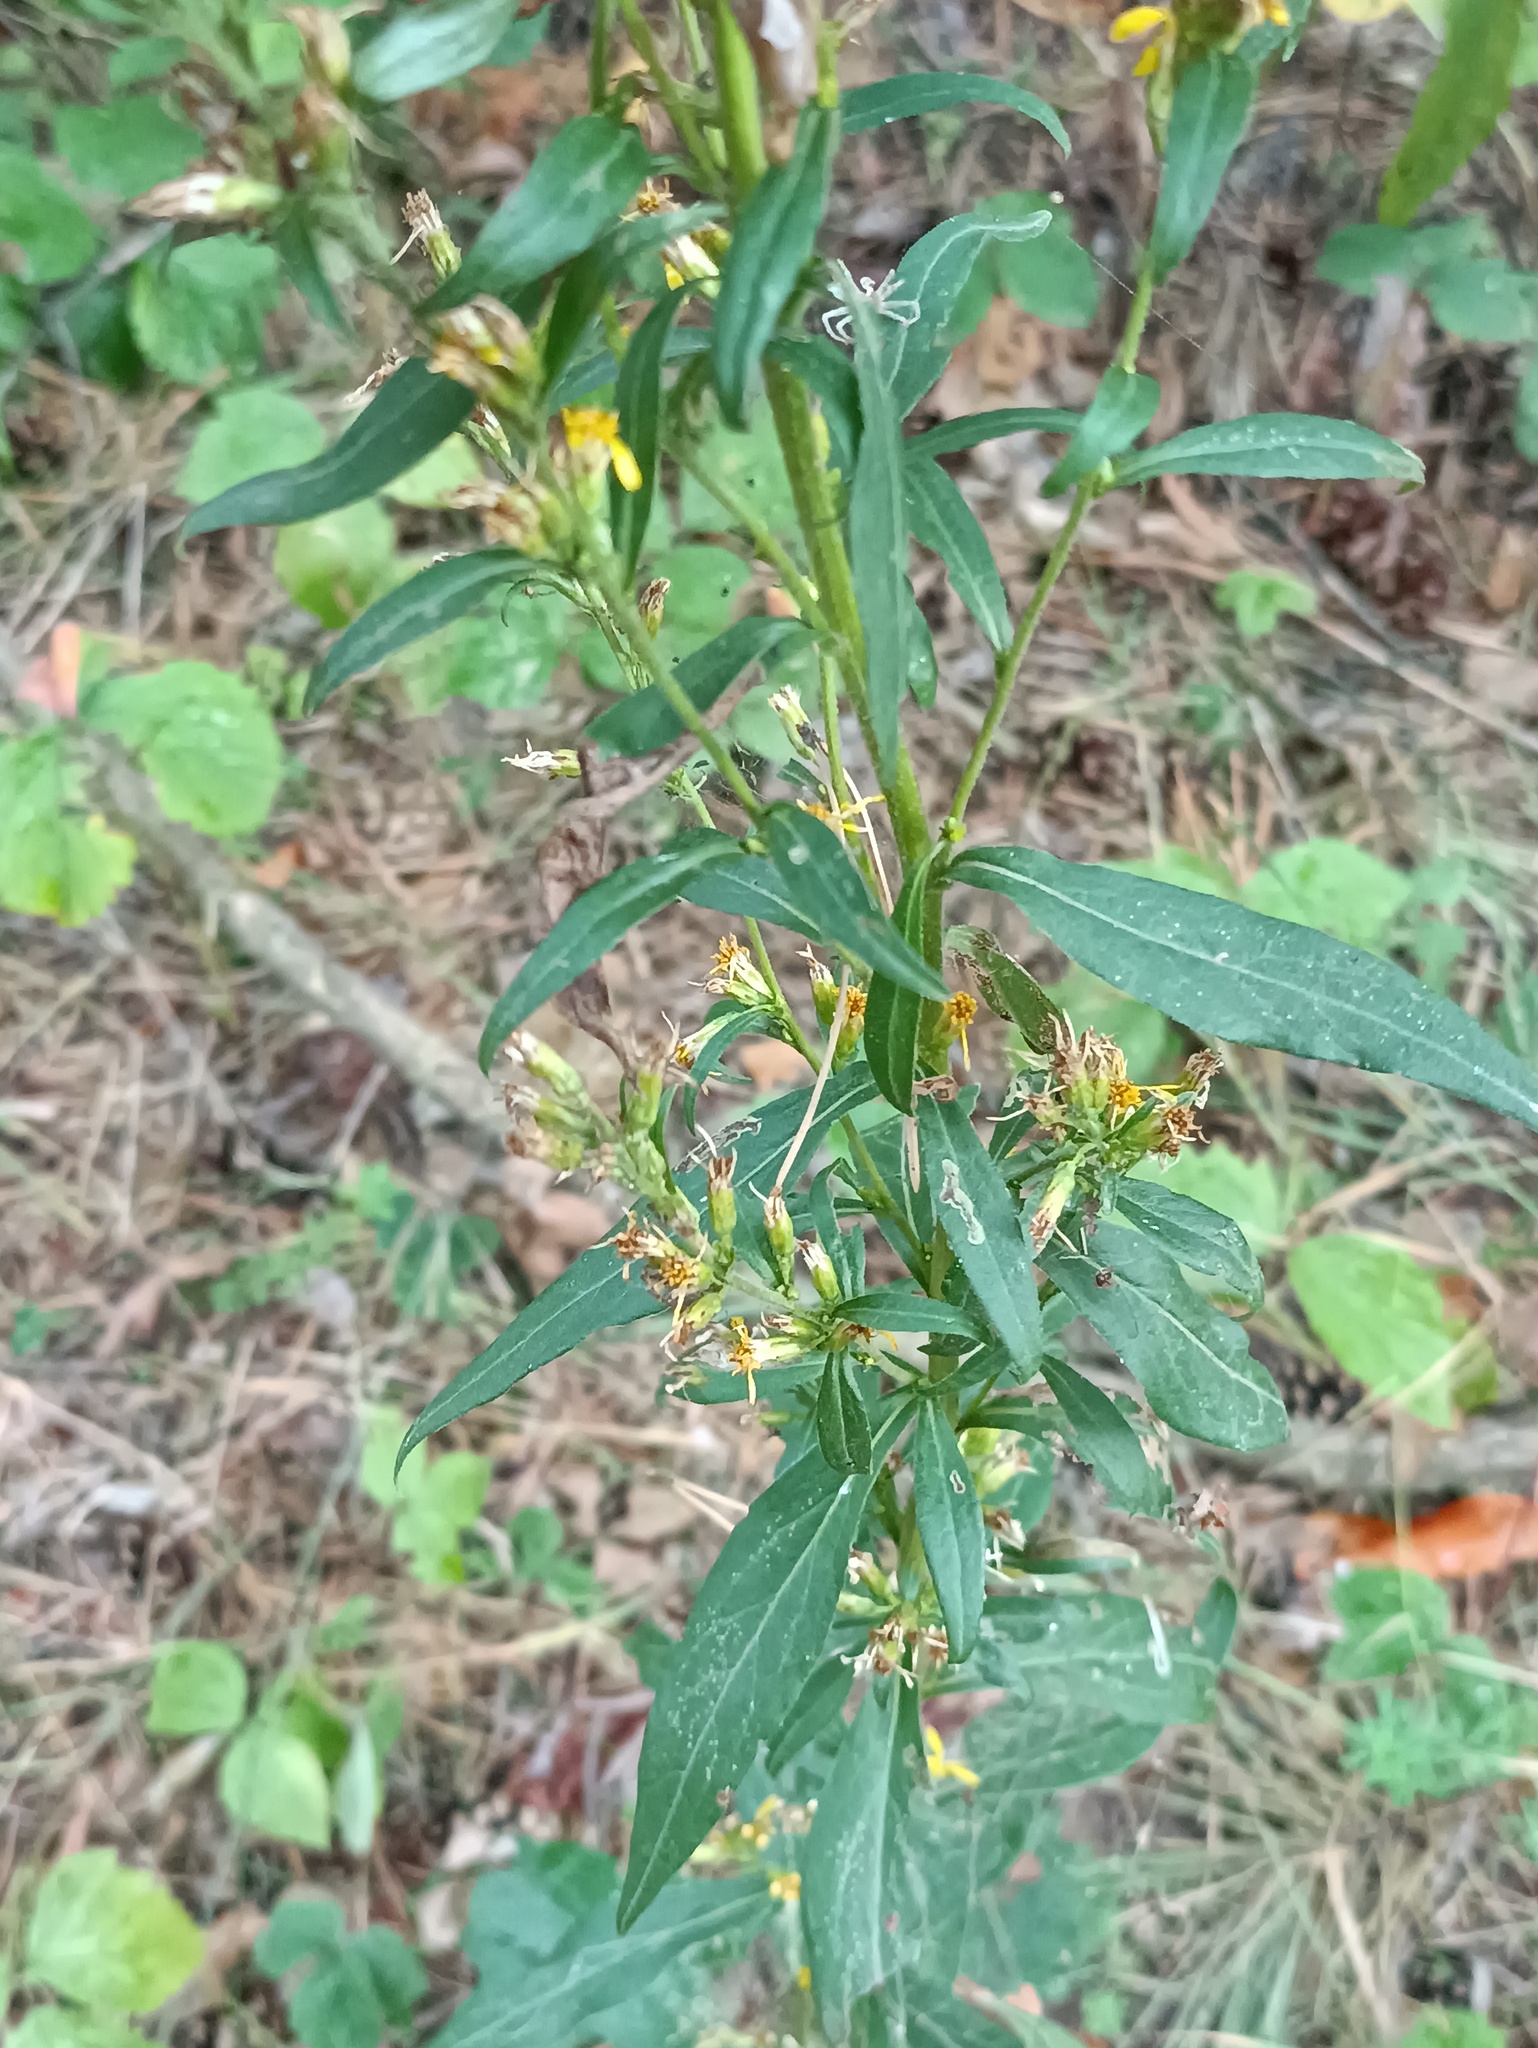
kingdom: Plantae
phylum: Tracheophyta
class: Magnoliopsida
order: Asterales
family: Asteraceae
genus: Solidago
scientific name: Solidago virgaurea
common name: Goldenrod
